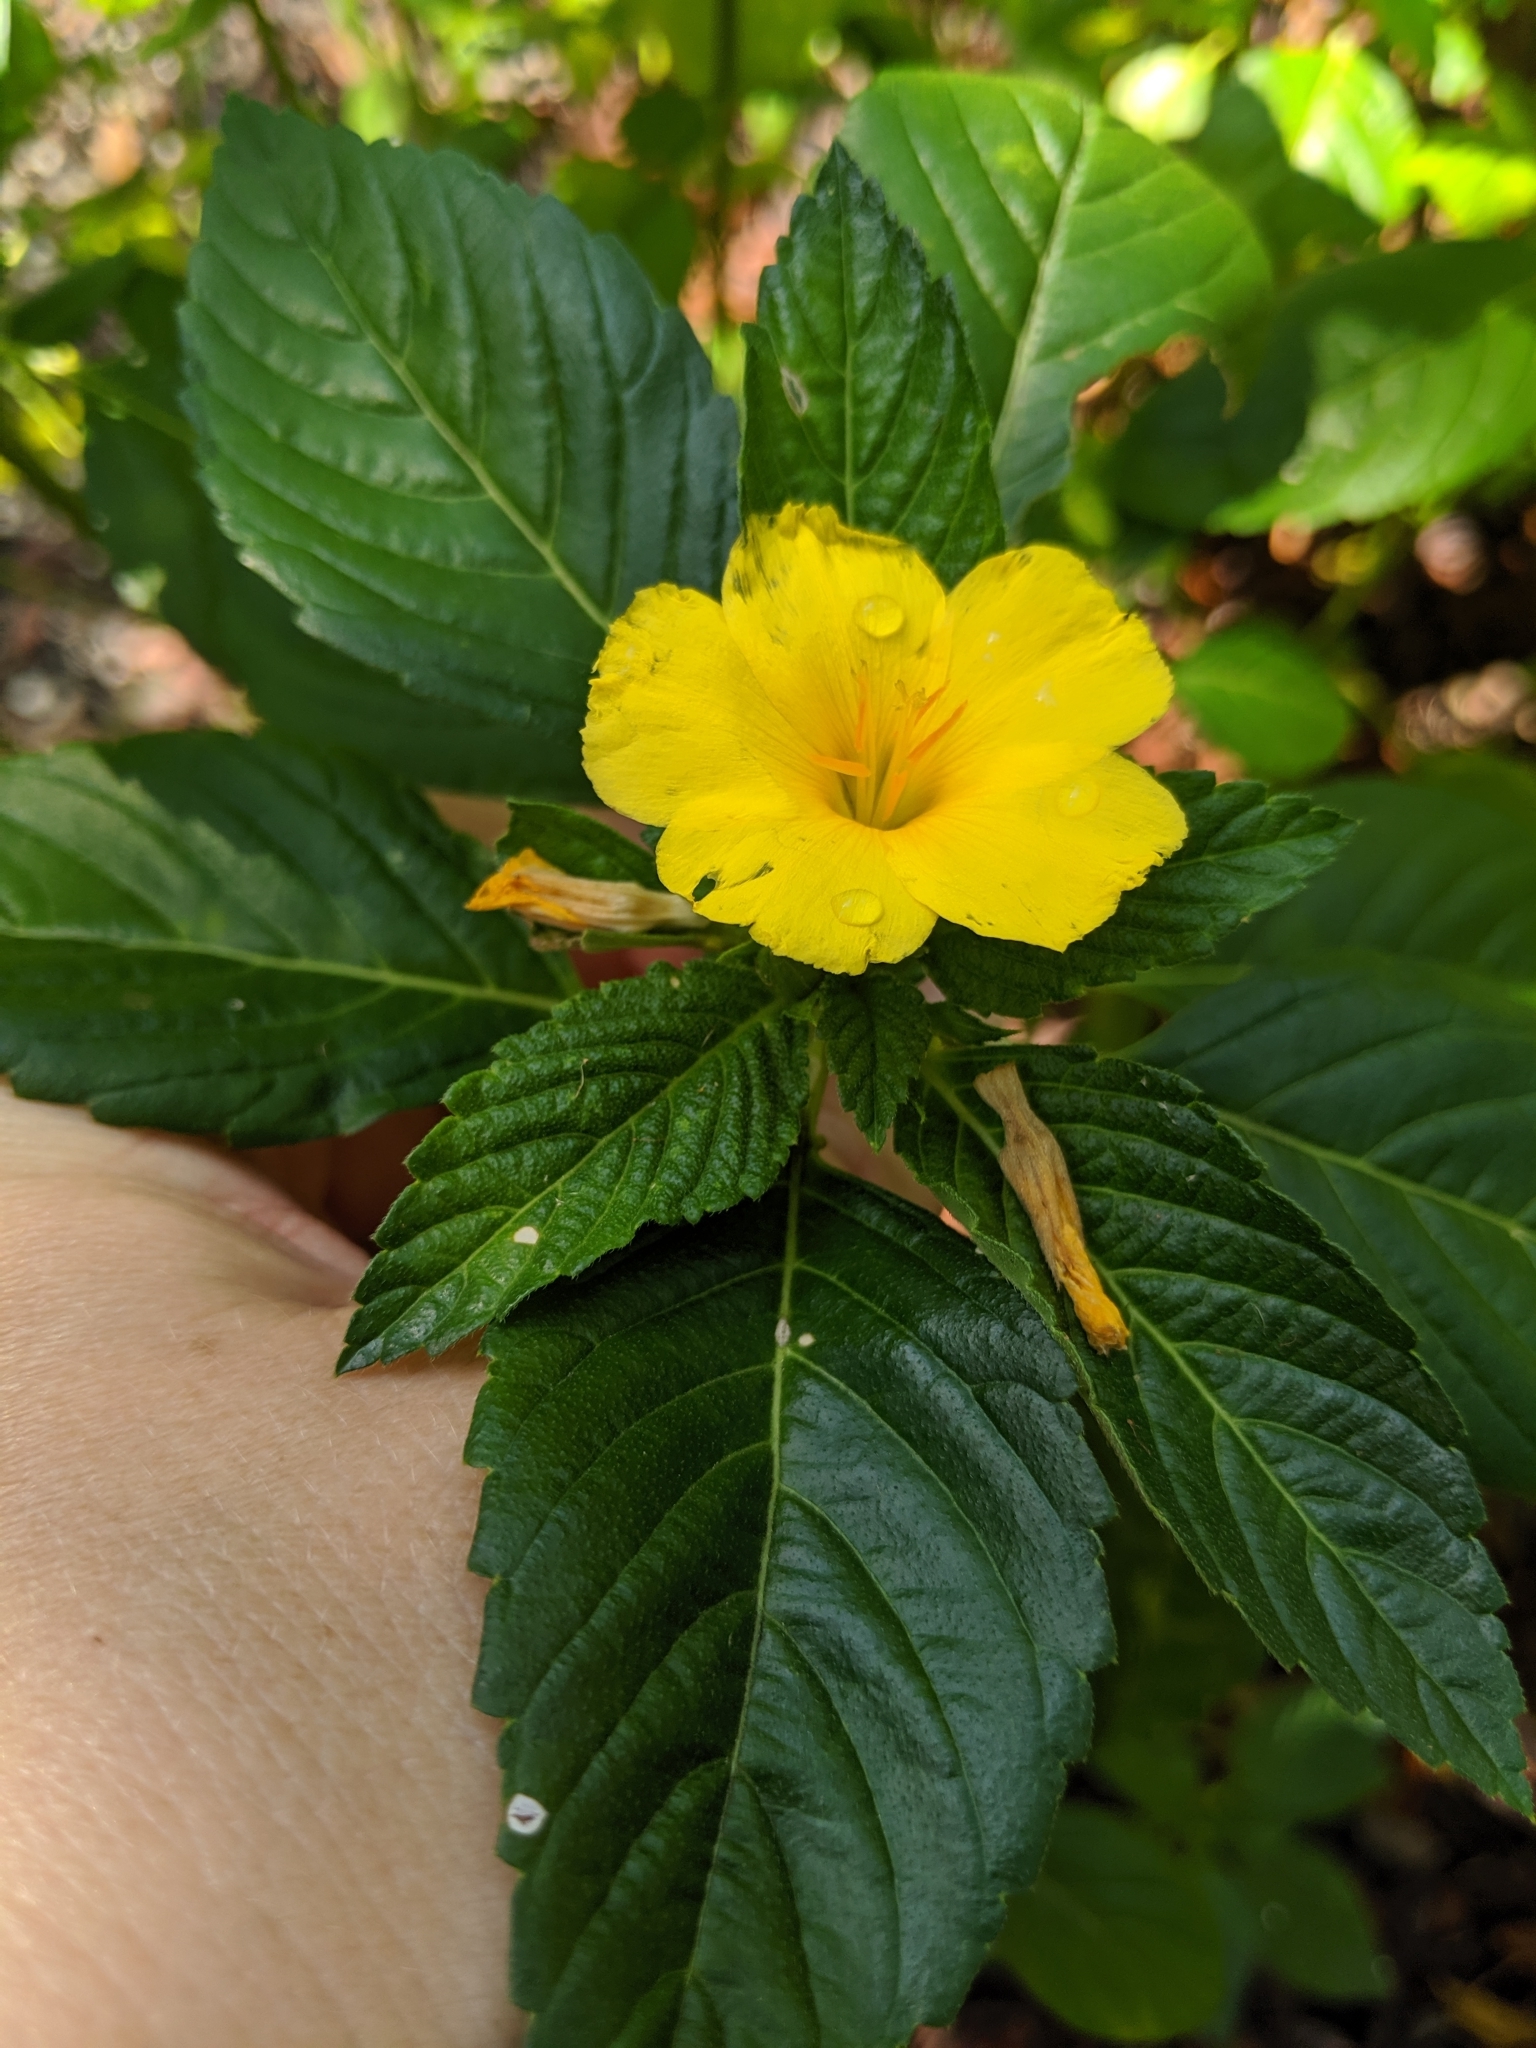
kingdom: Plantae
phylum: Tracheophyta
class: Magnoliopsida
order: Malpighiales
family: Turneraceae
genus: Turnera
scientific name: Turnera ulmifolia
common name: Ramgoat dashalong
